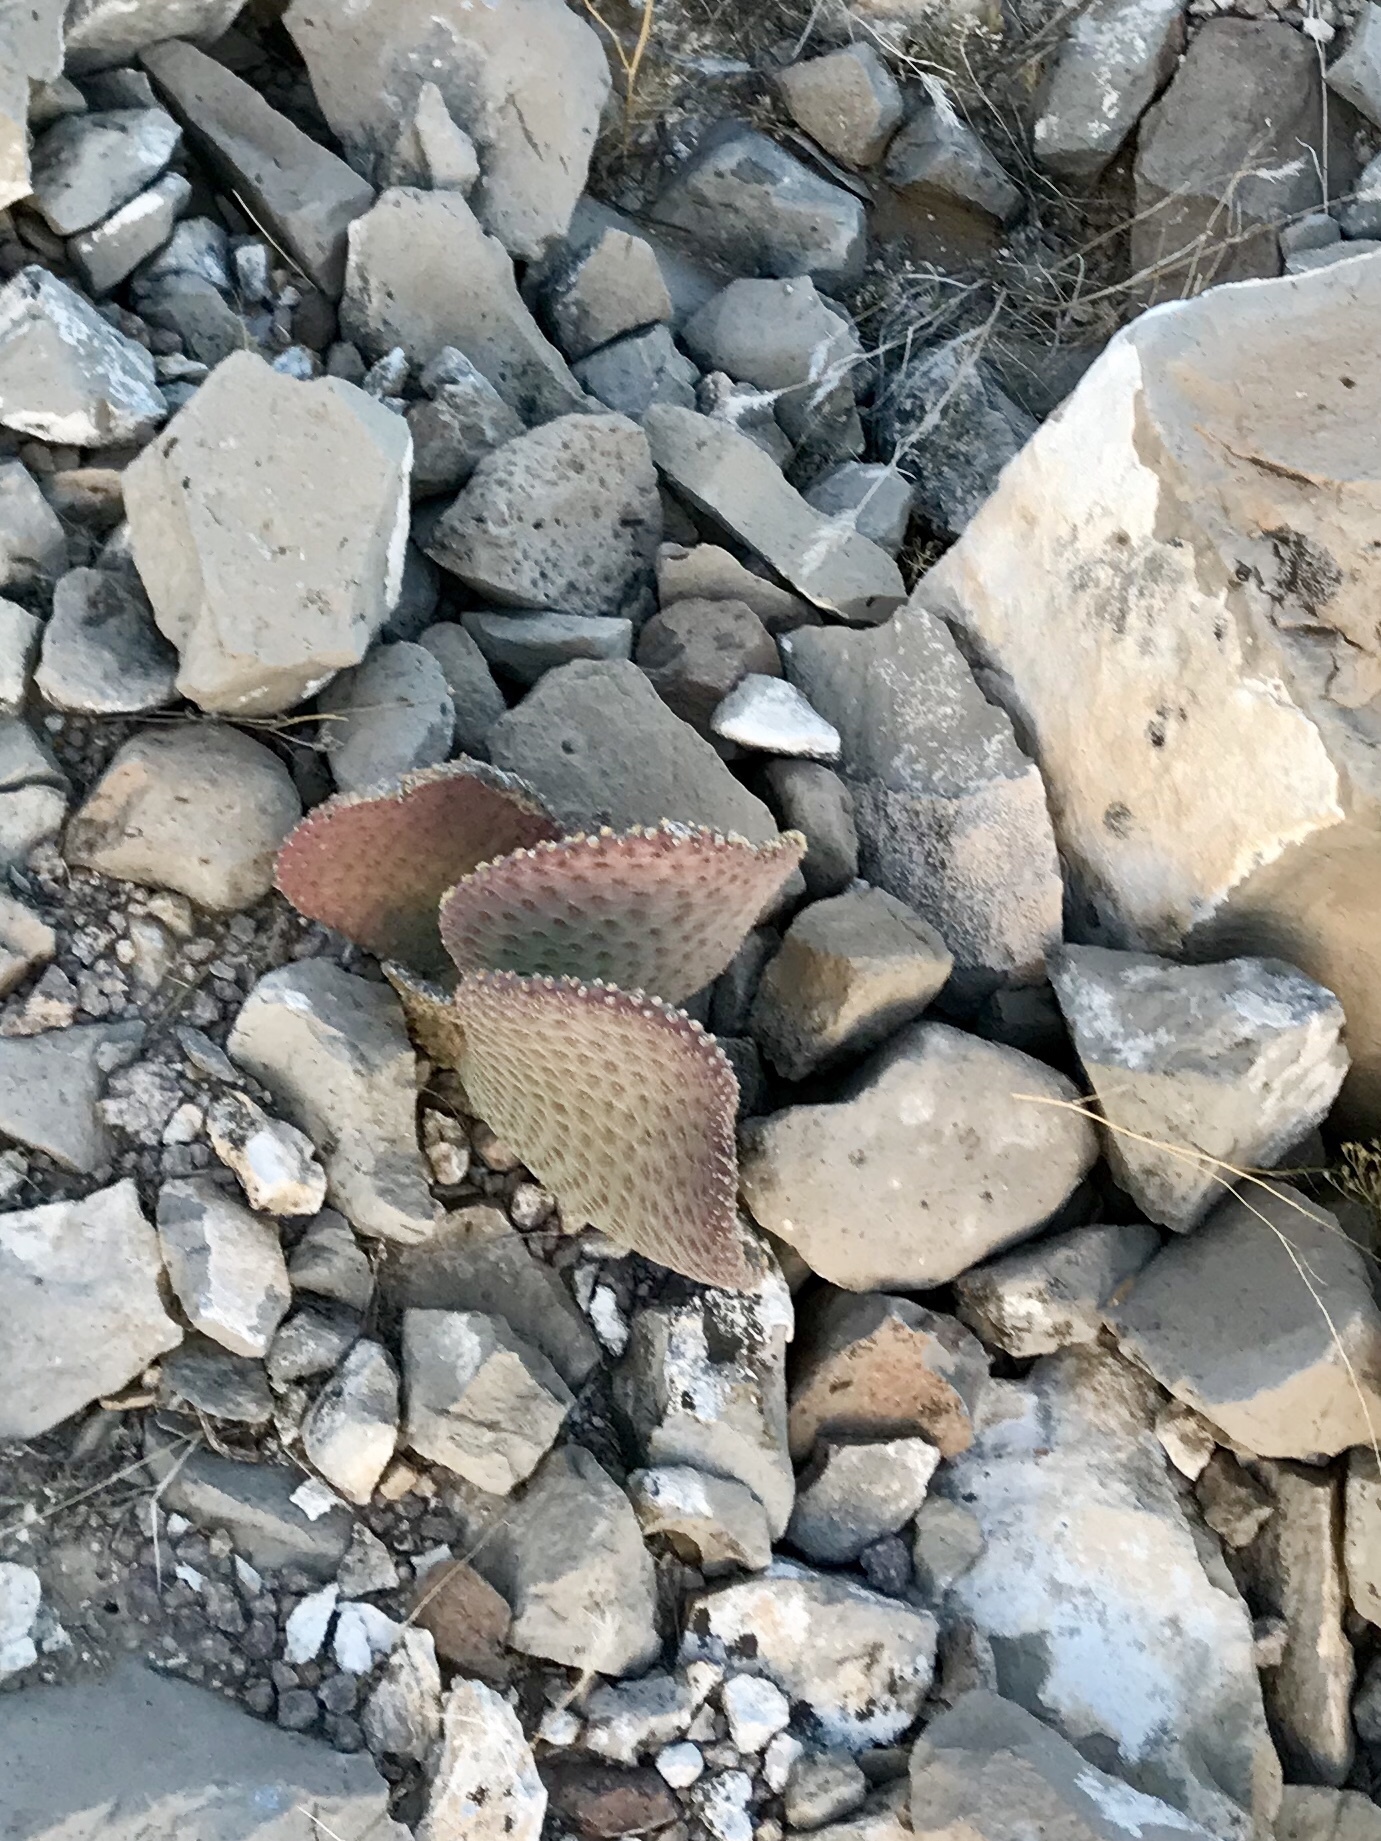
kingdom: Plantae
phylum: Tracheophyta
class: Magnoliopsida
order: Caryophyllales
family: Cactaceae
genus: Opuntia
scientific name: Opuntia basilaris
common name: Beavertail prickly-pear
